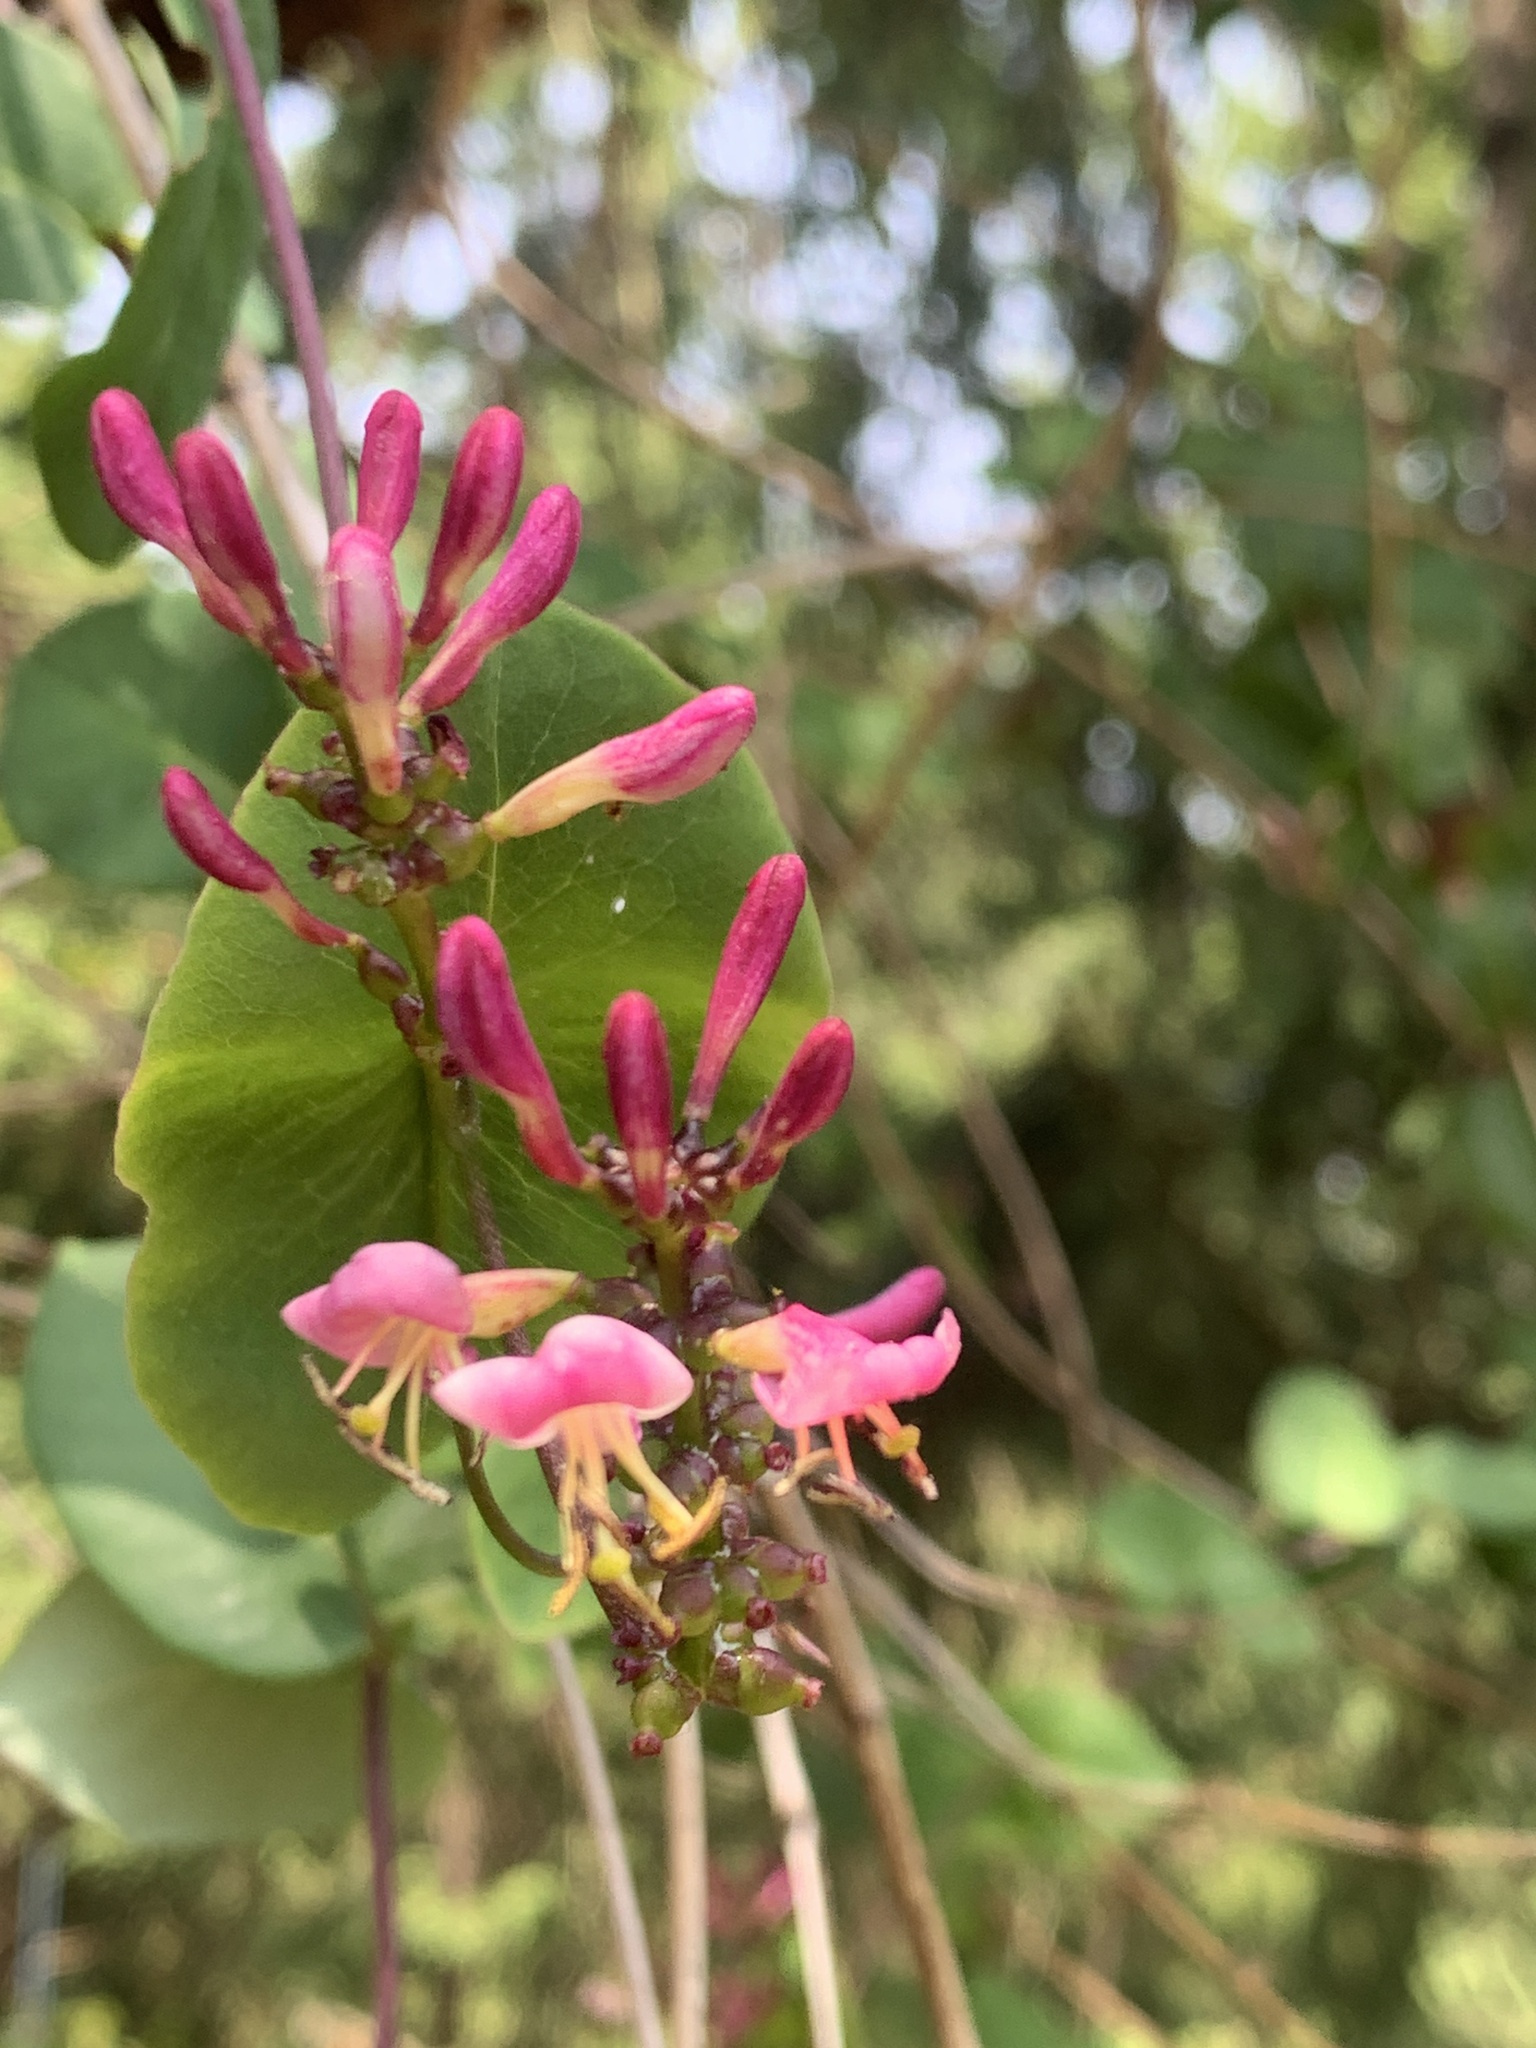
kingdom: Plantae
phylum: Tracheophyta
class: Magnoliopsida
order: Dipsacales
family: Caprifoliaceae
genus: Lonicera
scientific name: Lonicera hispidula
